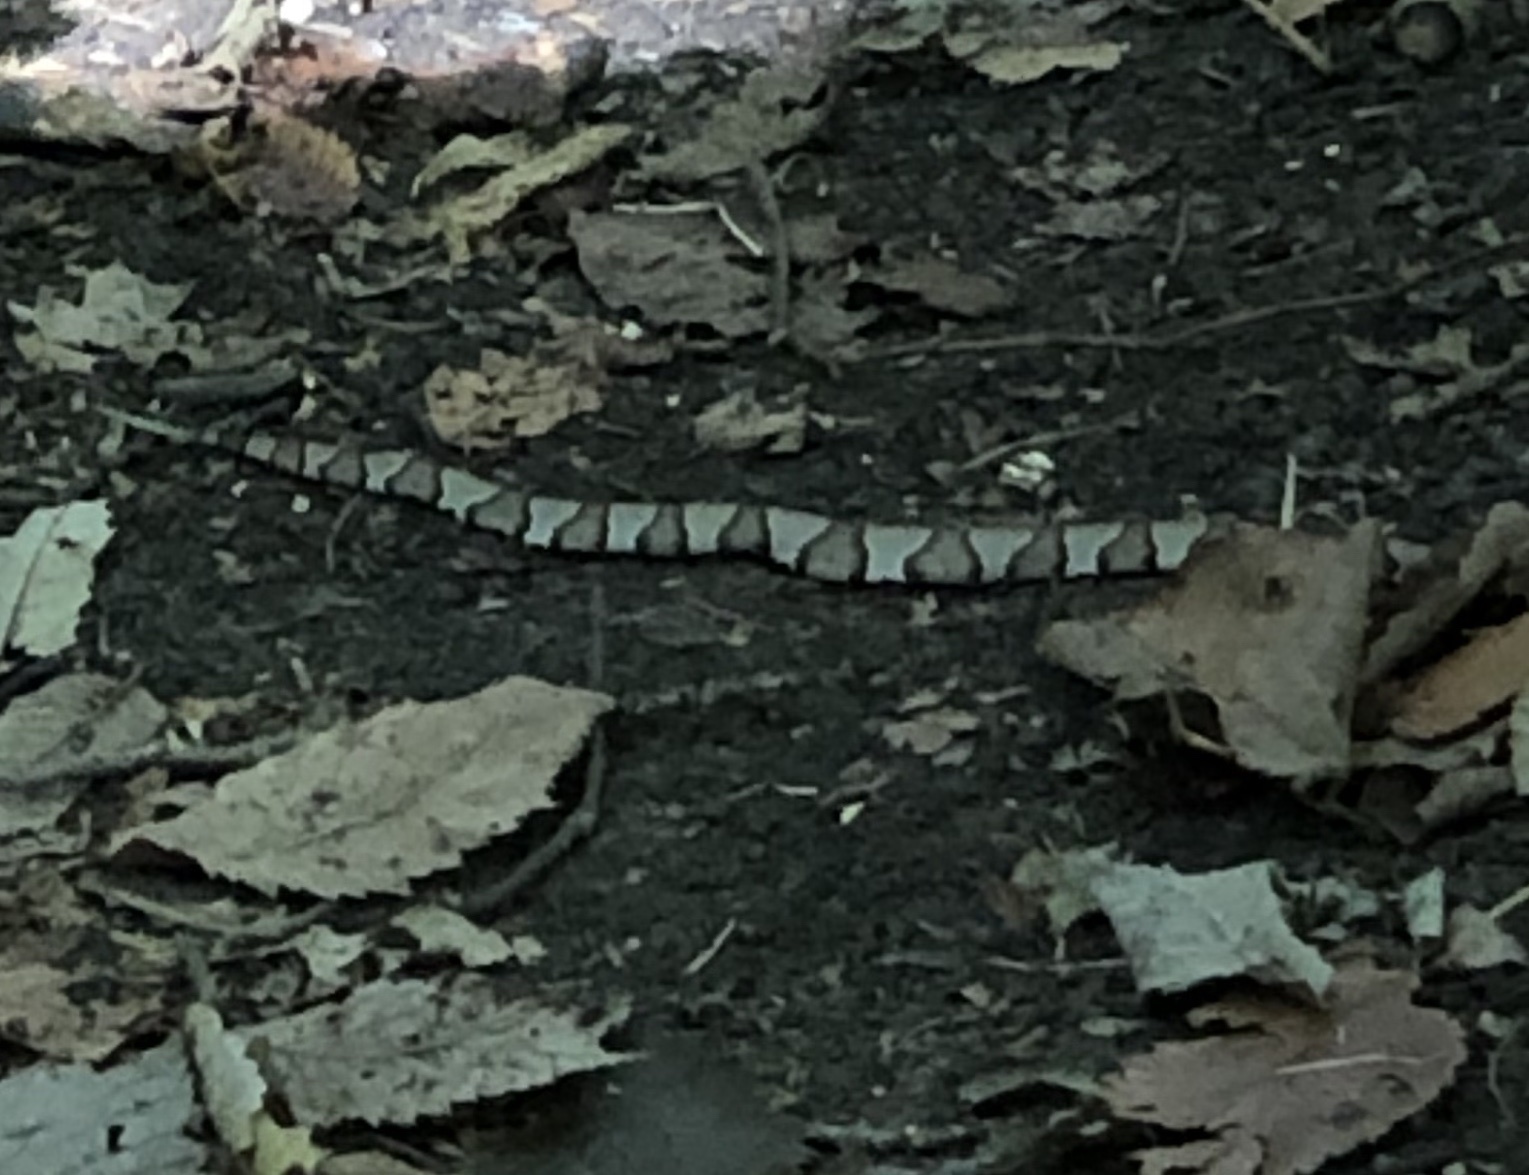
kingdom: Animalia
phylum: Chordata
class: Squamata
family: Viperidae
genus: Agkistrodon
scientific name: Agkistrodon contortrix
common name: Northern copperhead
